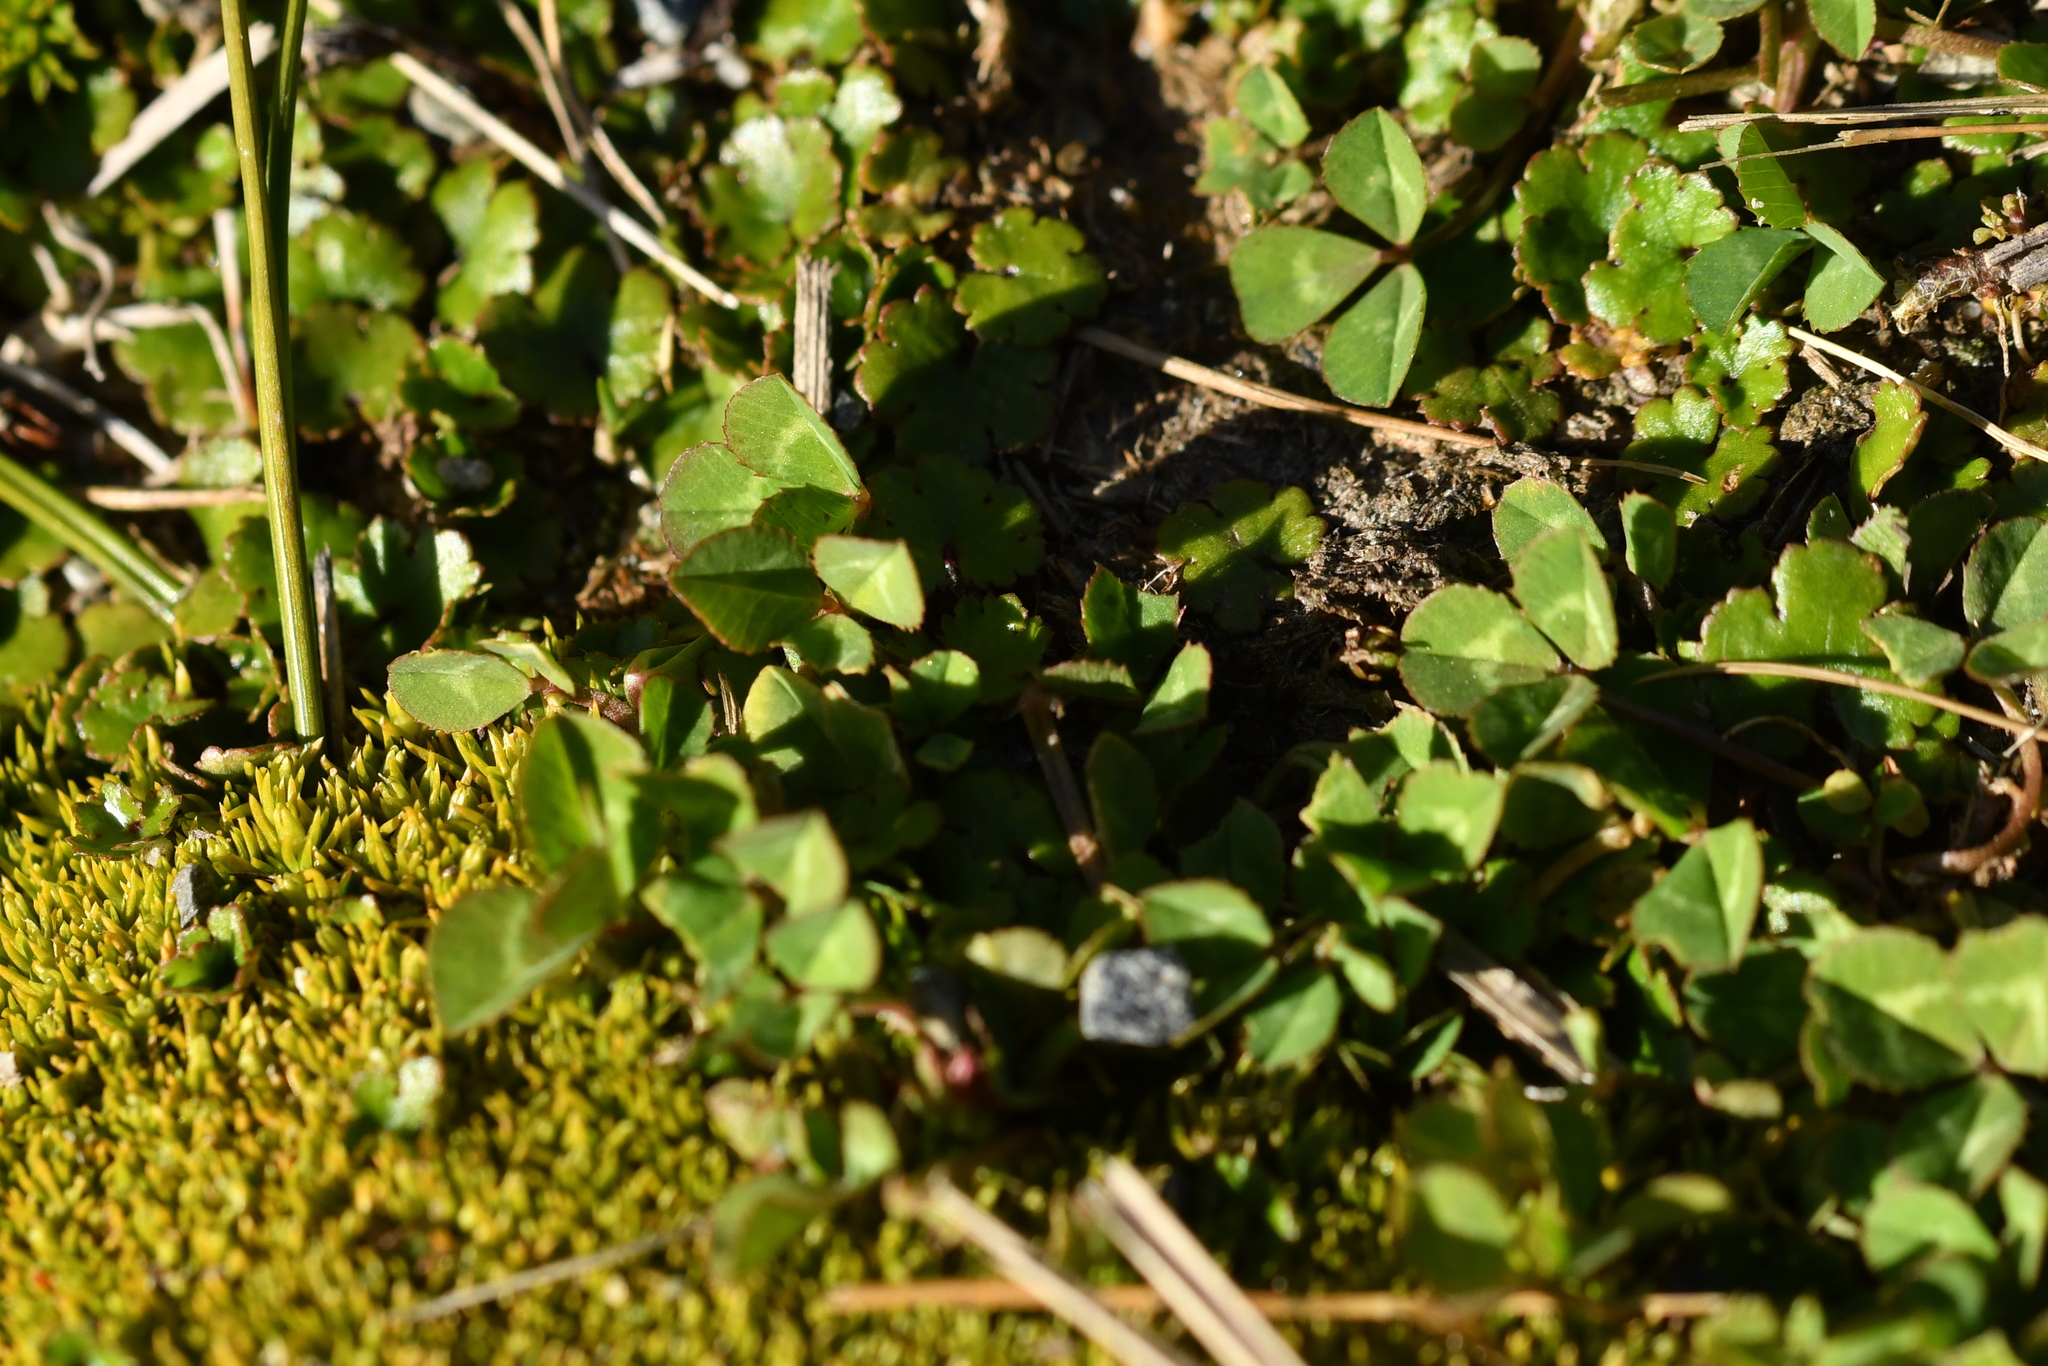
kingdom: Plantae
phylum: Tracheophyta
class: Magnoliopsida
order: Fabales
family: Fabaceae
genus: Trifolium
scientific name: Trifolium repens
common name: White clover
